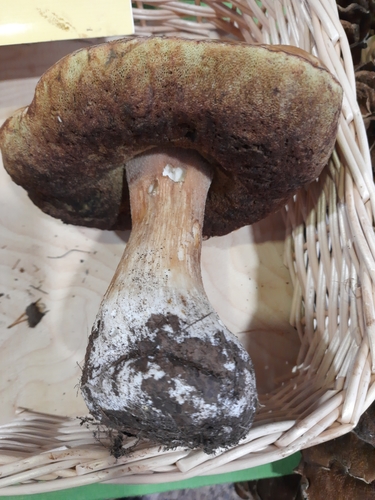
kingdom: Fungi
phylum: Basidiomycota
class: Agaricomycetes
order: Boletales
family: Boletaceae
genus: Boletus
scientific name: Boletus edulis
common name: Cep
